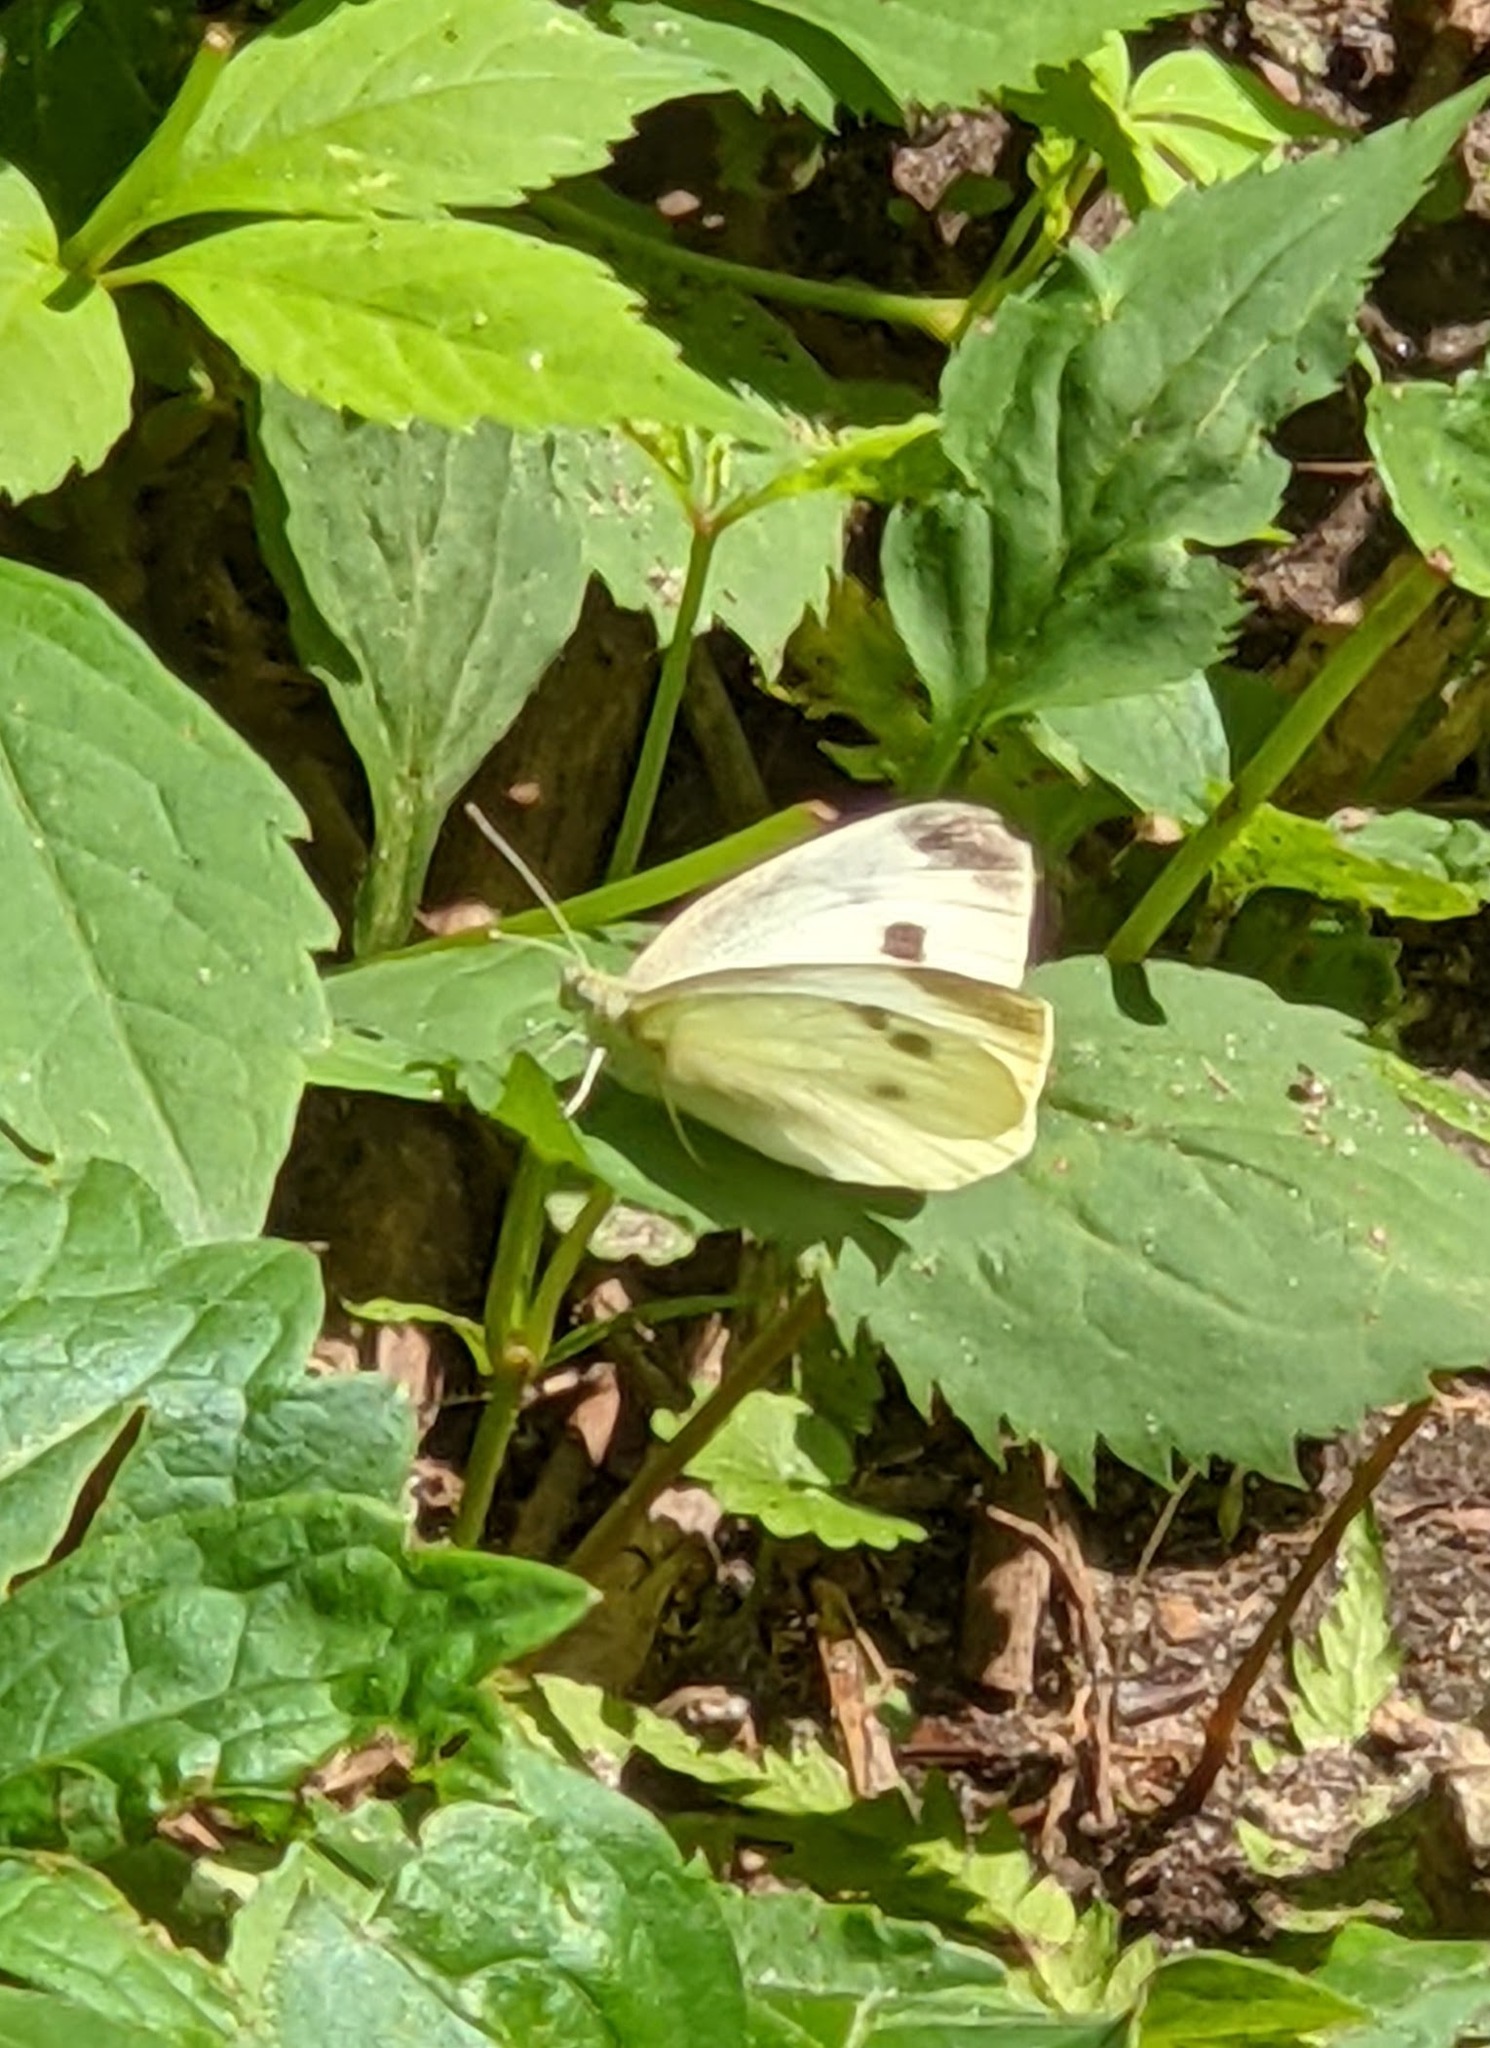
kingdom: Animalia
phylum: Arthropoda
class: Insecta
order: Lepidoptera
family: Pieridae
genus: Pieris
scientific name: Pieris rapae
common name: Small white
